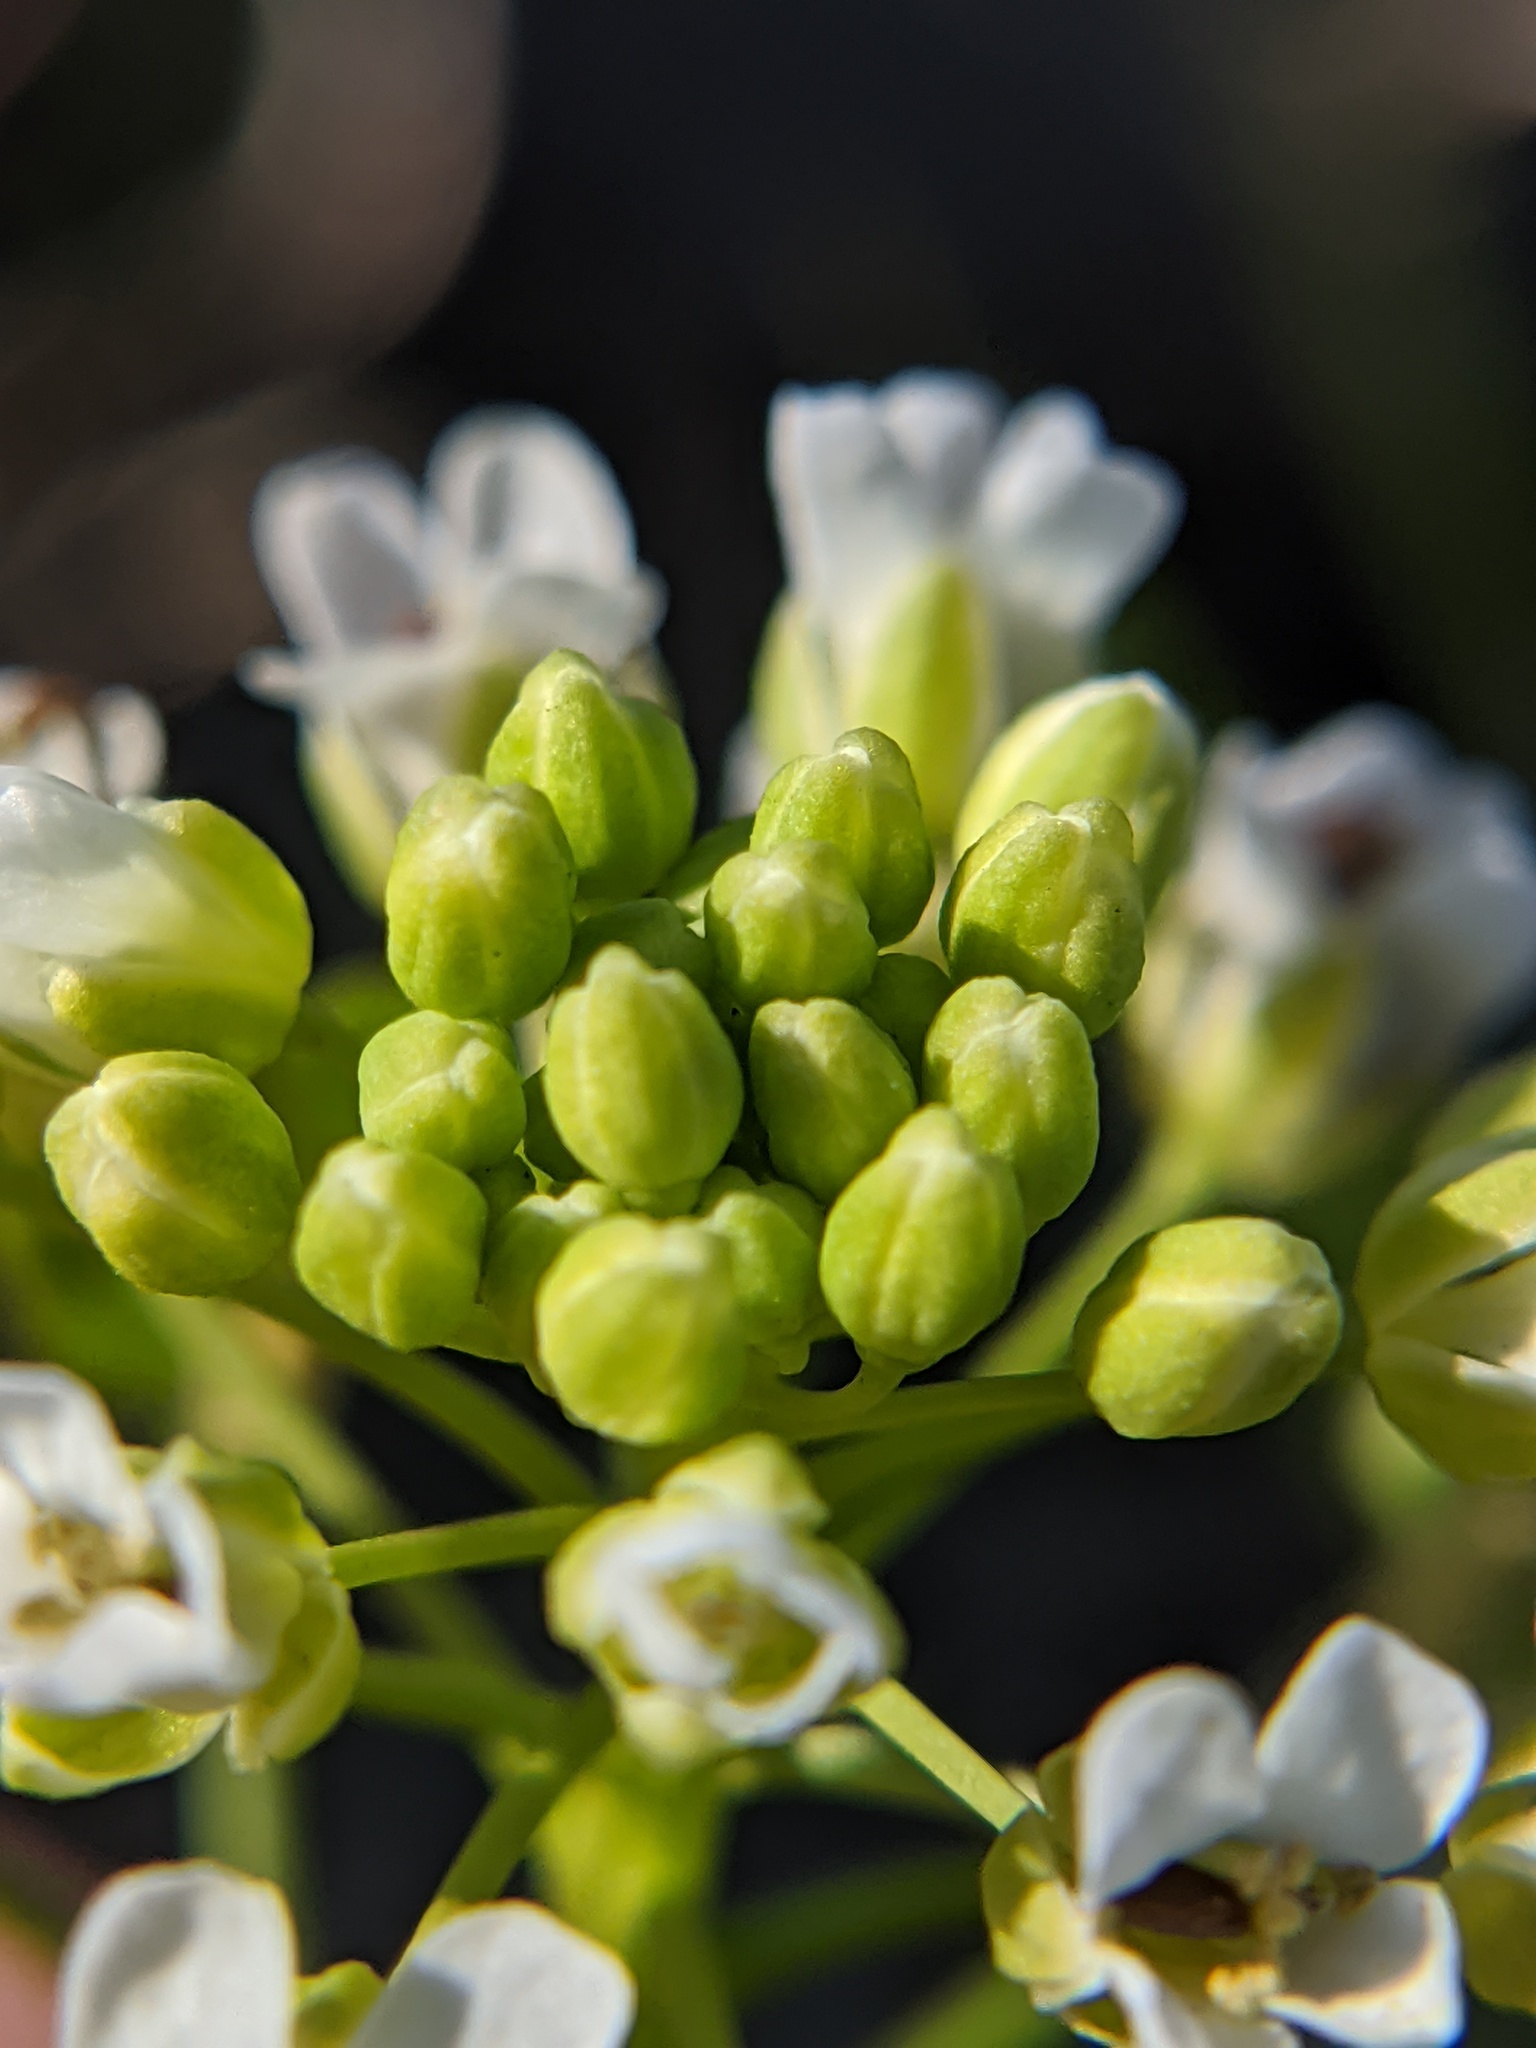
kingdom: Plantae
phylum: Tracheophyta
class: Magnoliopsida
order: Brassicales
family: Brassicaceae
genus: Thlaspi
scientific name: Thlaspi arvense
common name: Field pennycress
